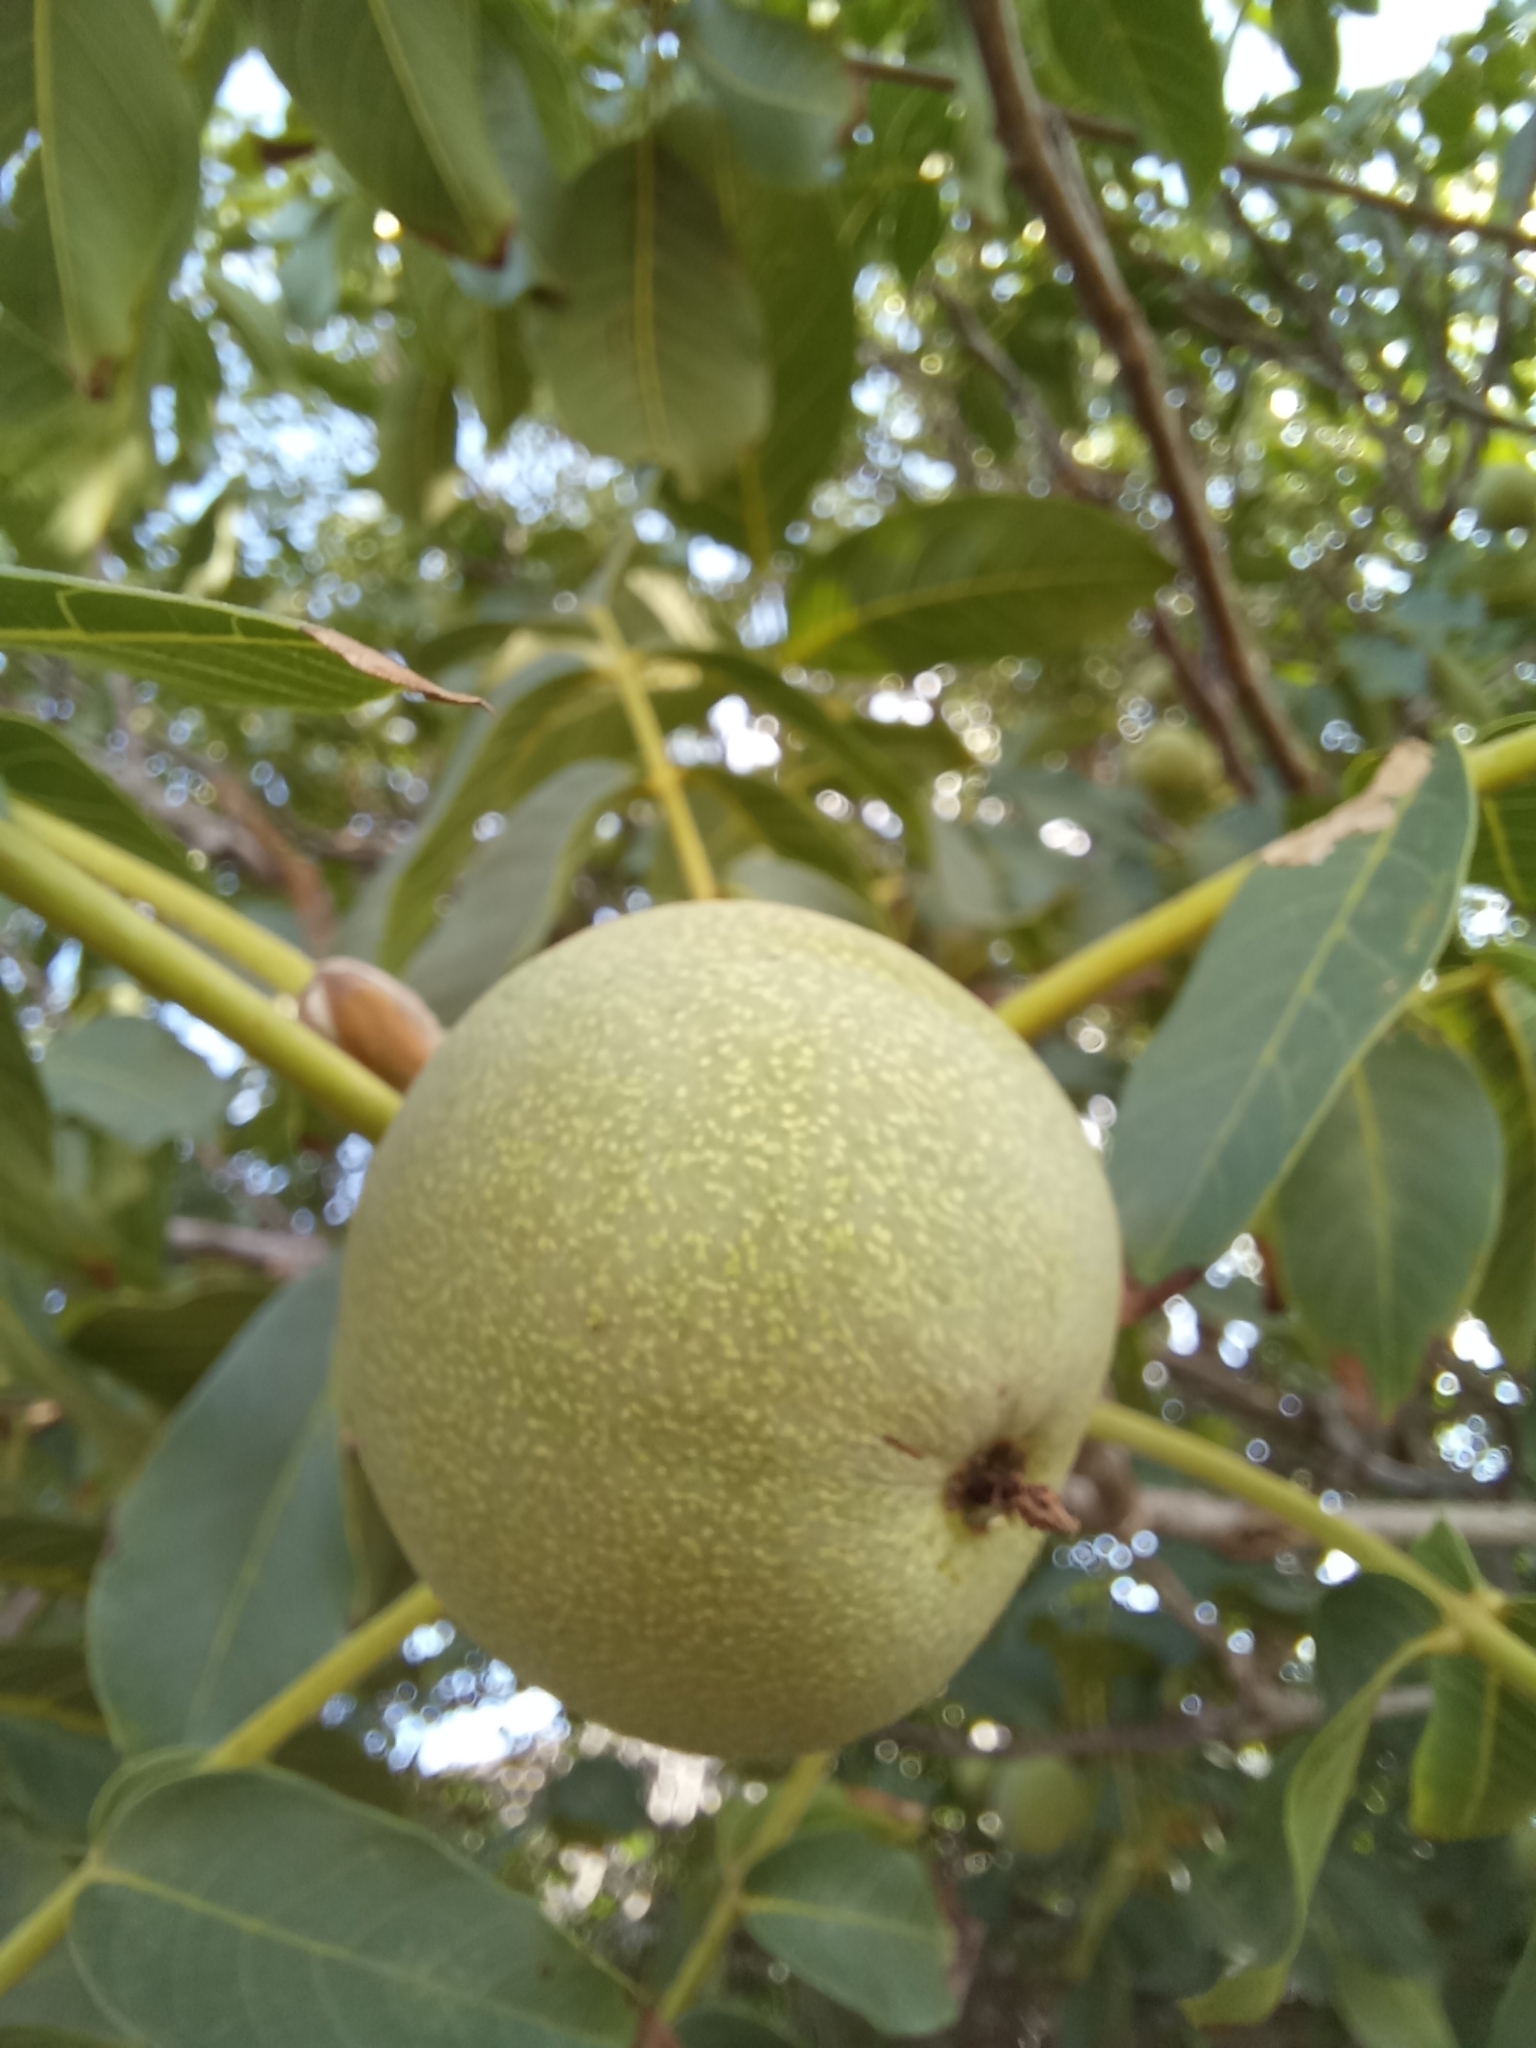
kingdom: Plantae
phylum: Tracheophyta
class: Magnoliopsida
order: Fagales
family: Juglandaceae
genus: Juglans
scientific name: Juglans regia
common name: Walnut
